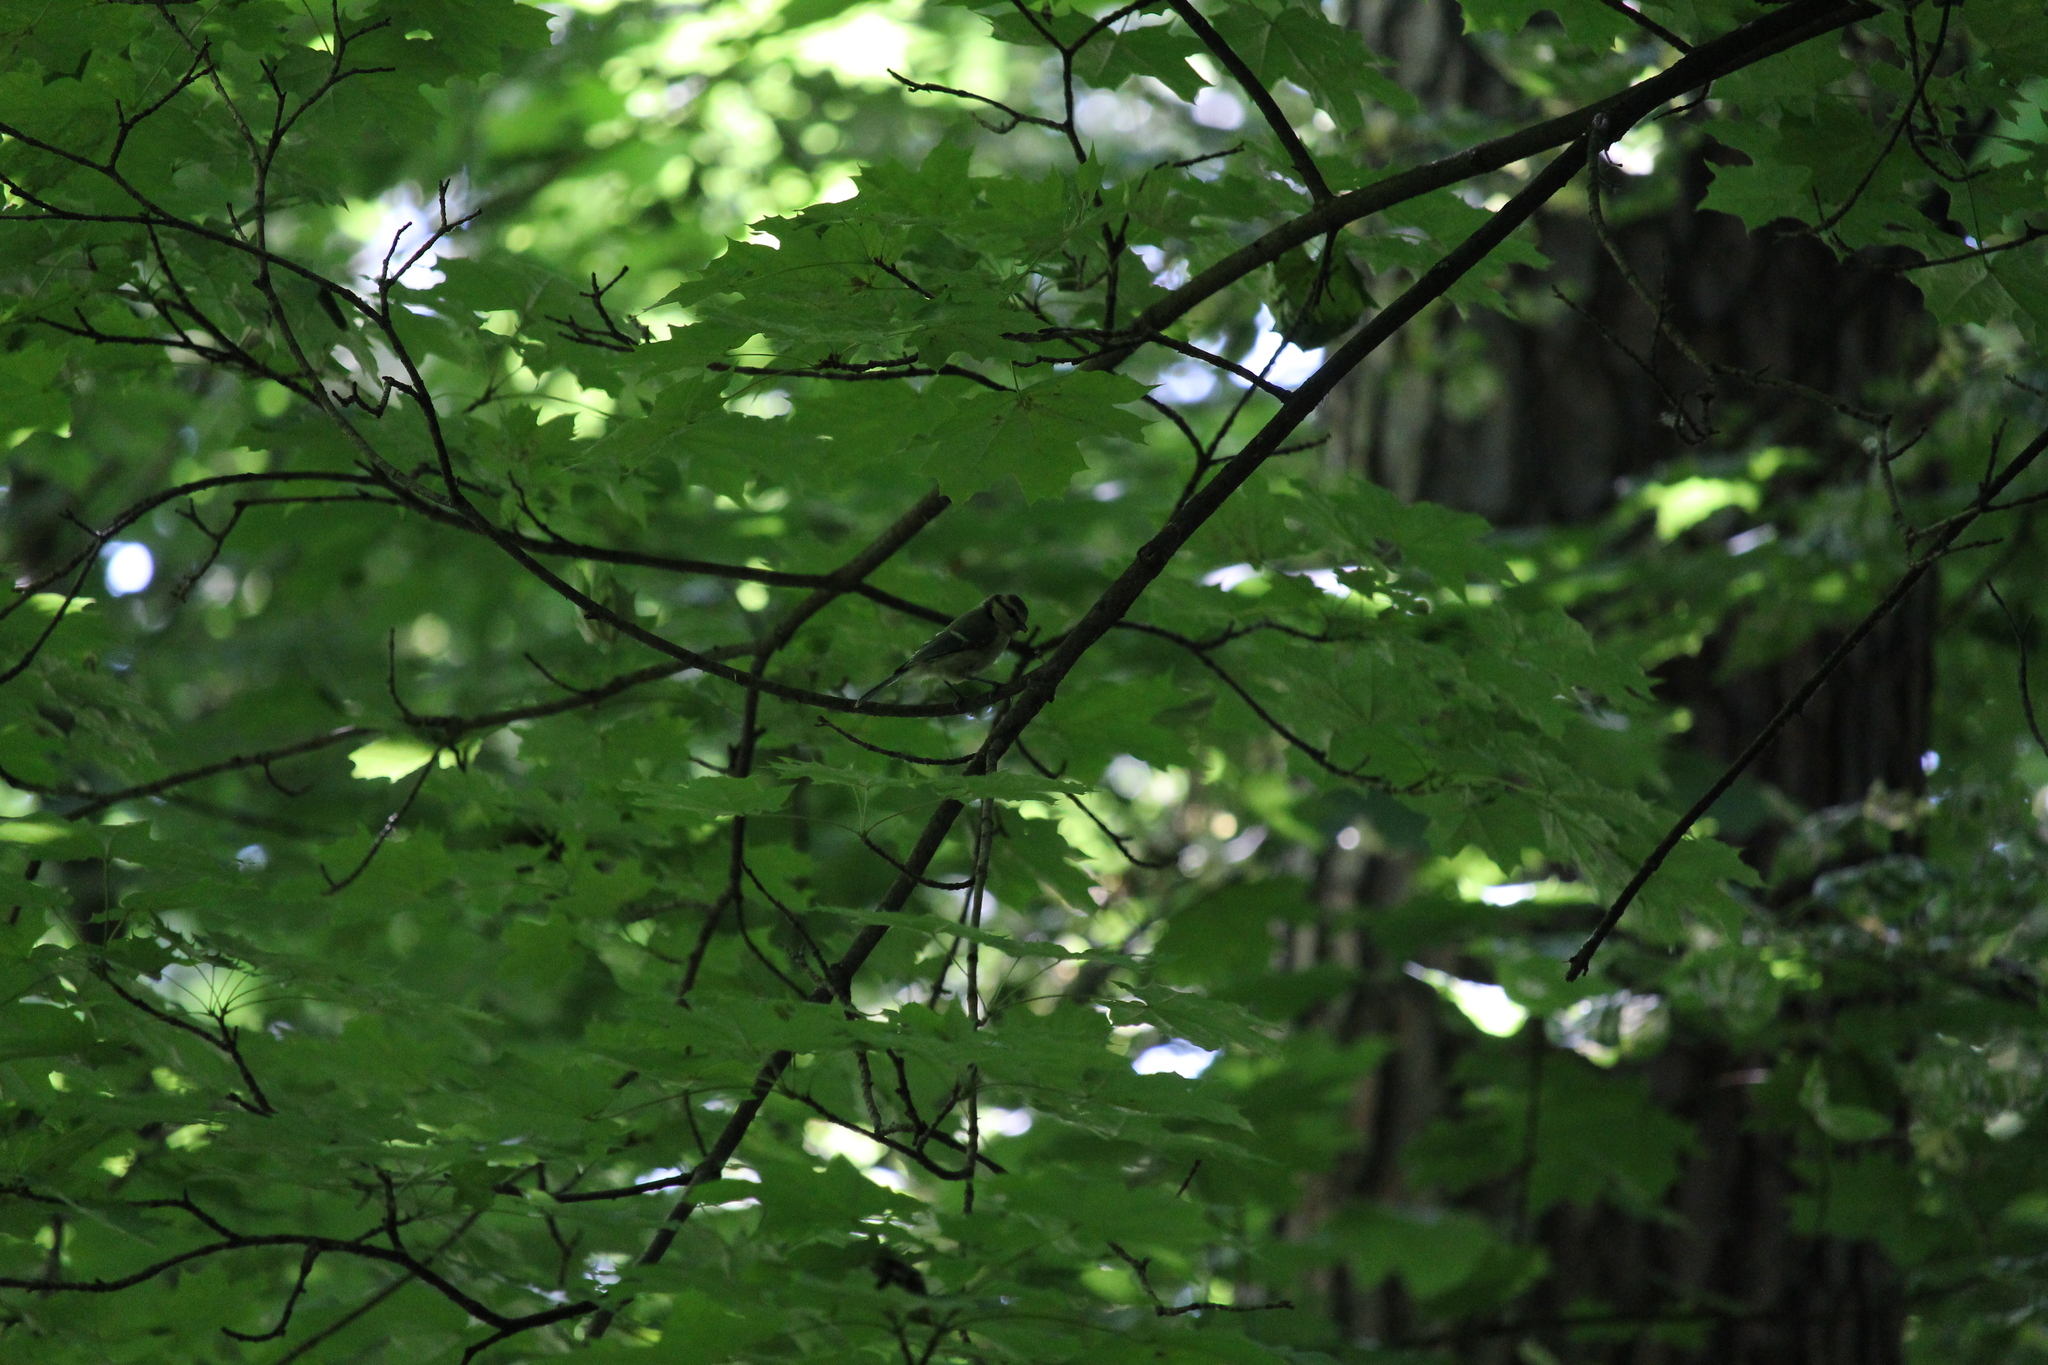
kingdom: Animalia
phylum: Chordata
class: Aves
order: Passeriformes
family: Paridae
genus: Cyanistes
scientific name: Cyanistes caeruleus
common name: Eurasian blue tit
